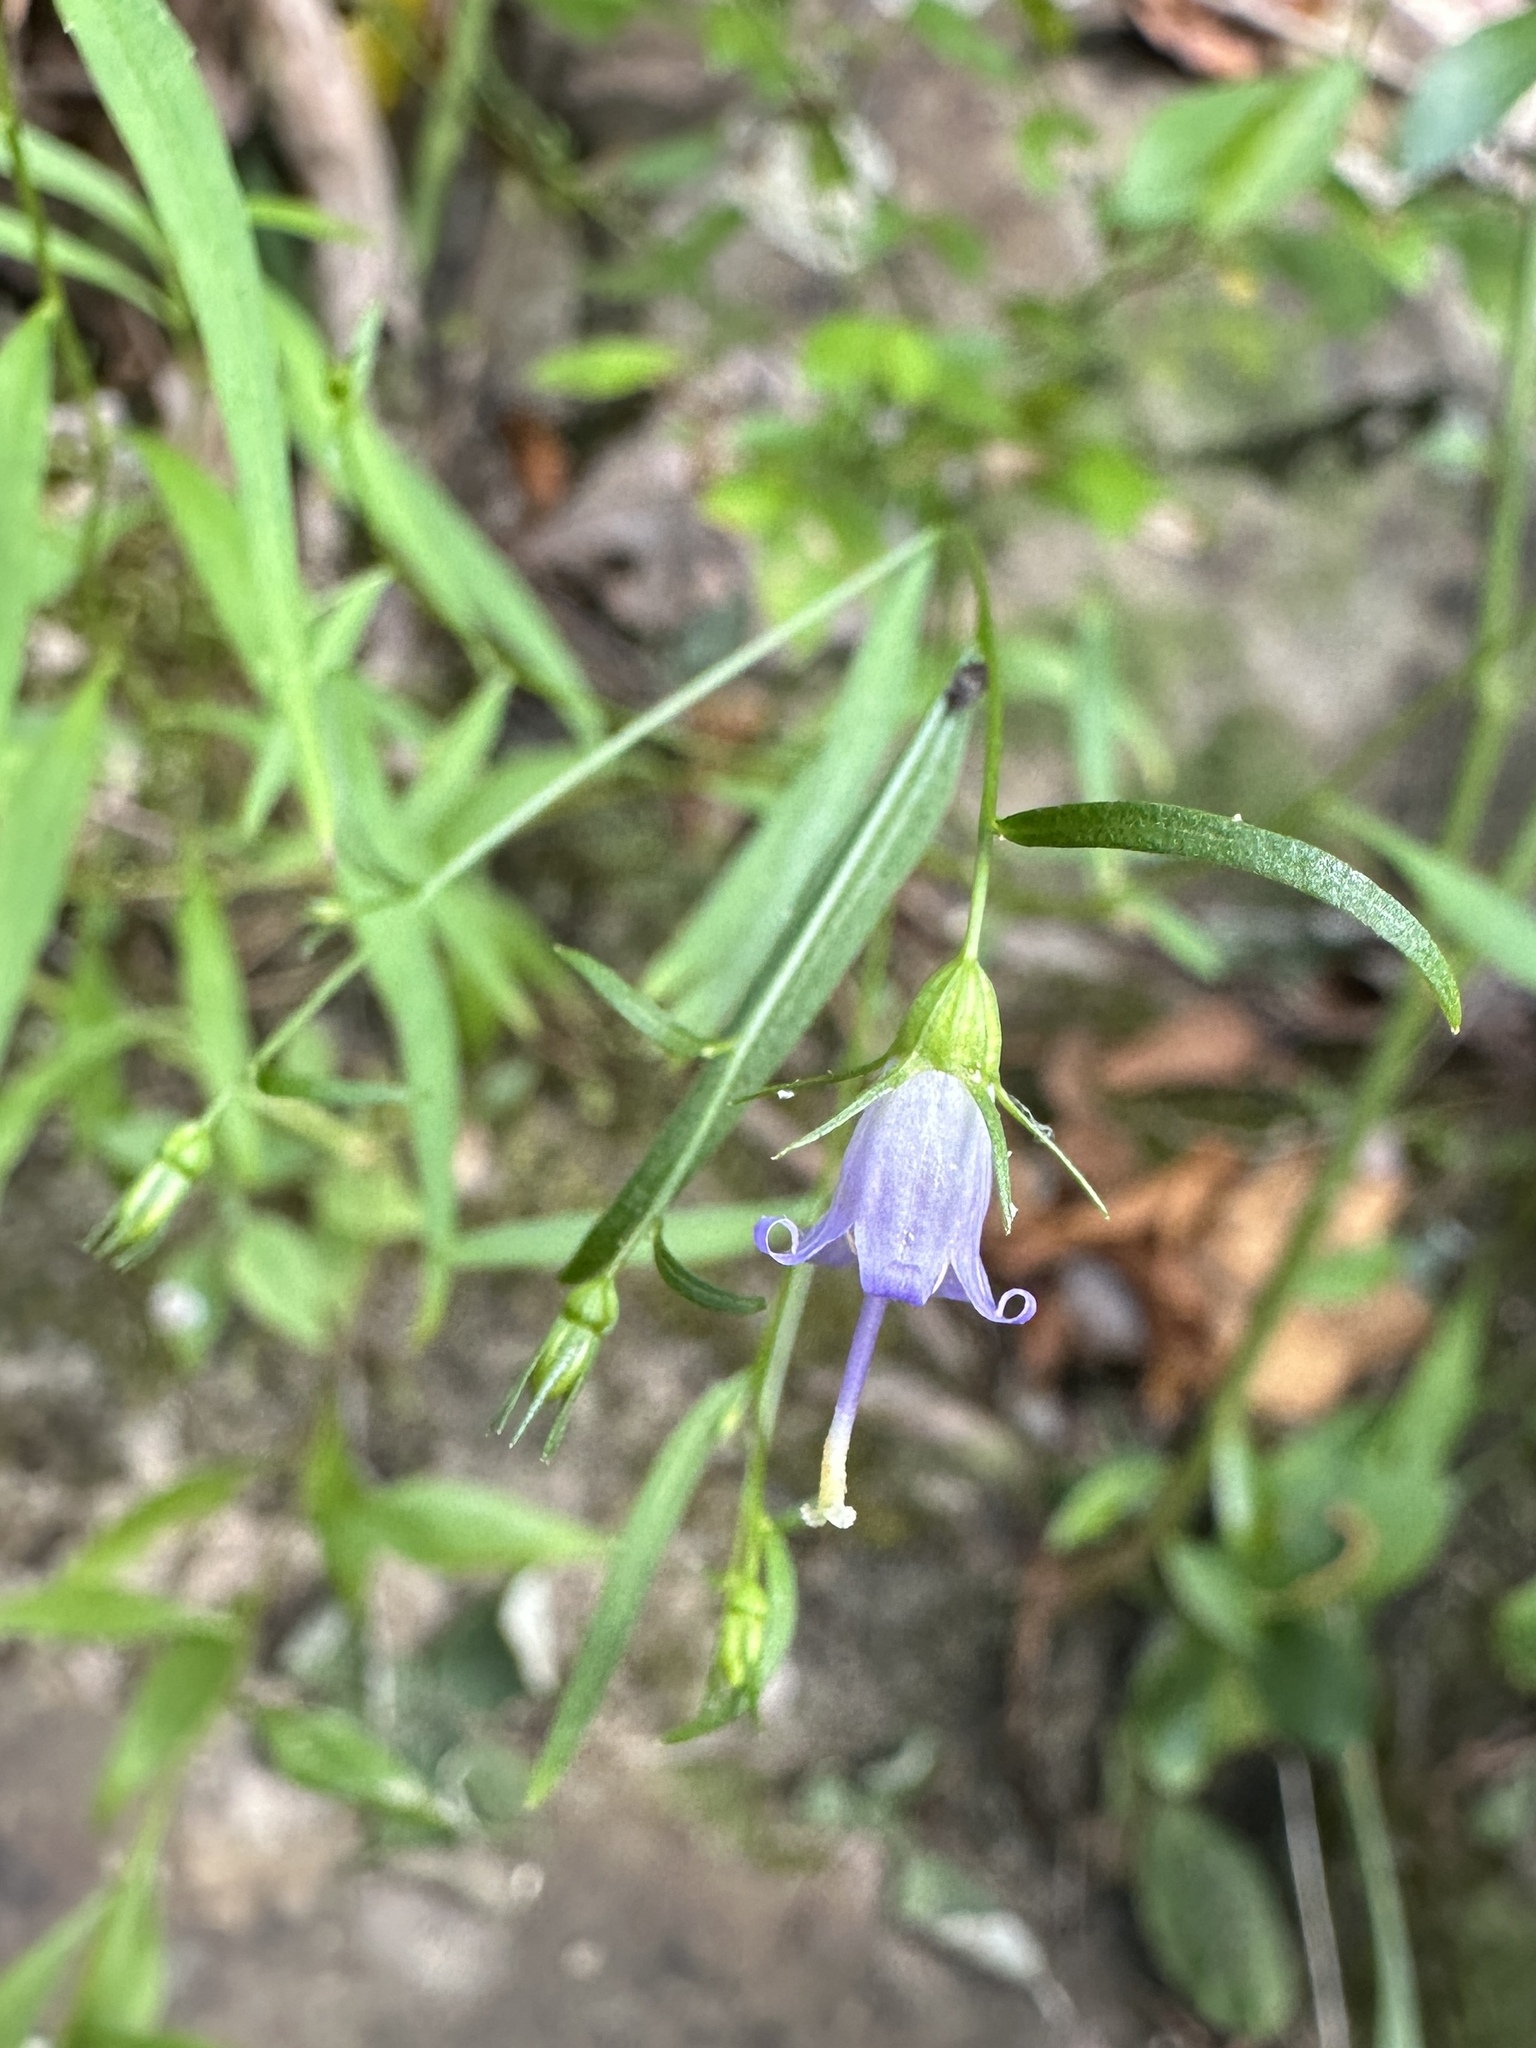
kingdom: Plantae
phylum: Tracheophyta
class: Magnoliopsida
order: Asterales
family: Campanulaceae
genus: Campanula
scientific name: Campanula divaricata
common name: Appalachian bellflower
